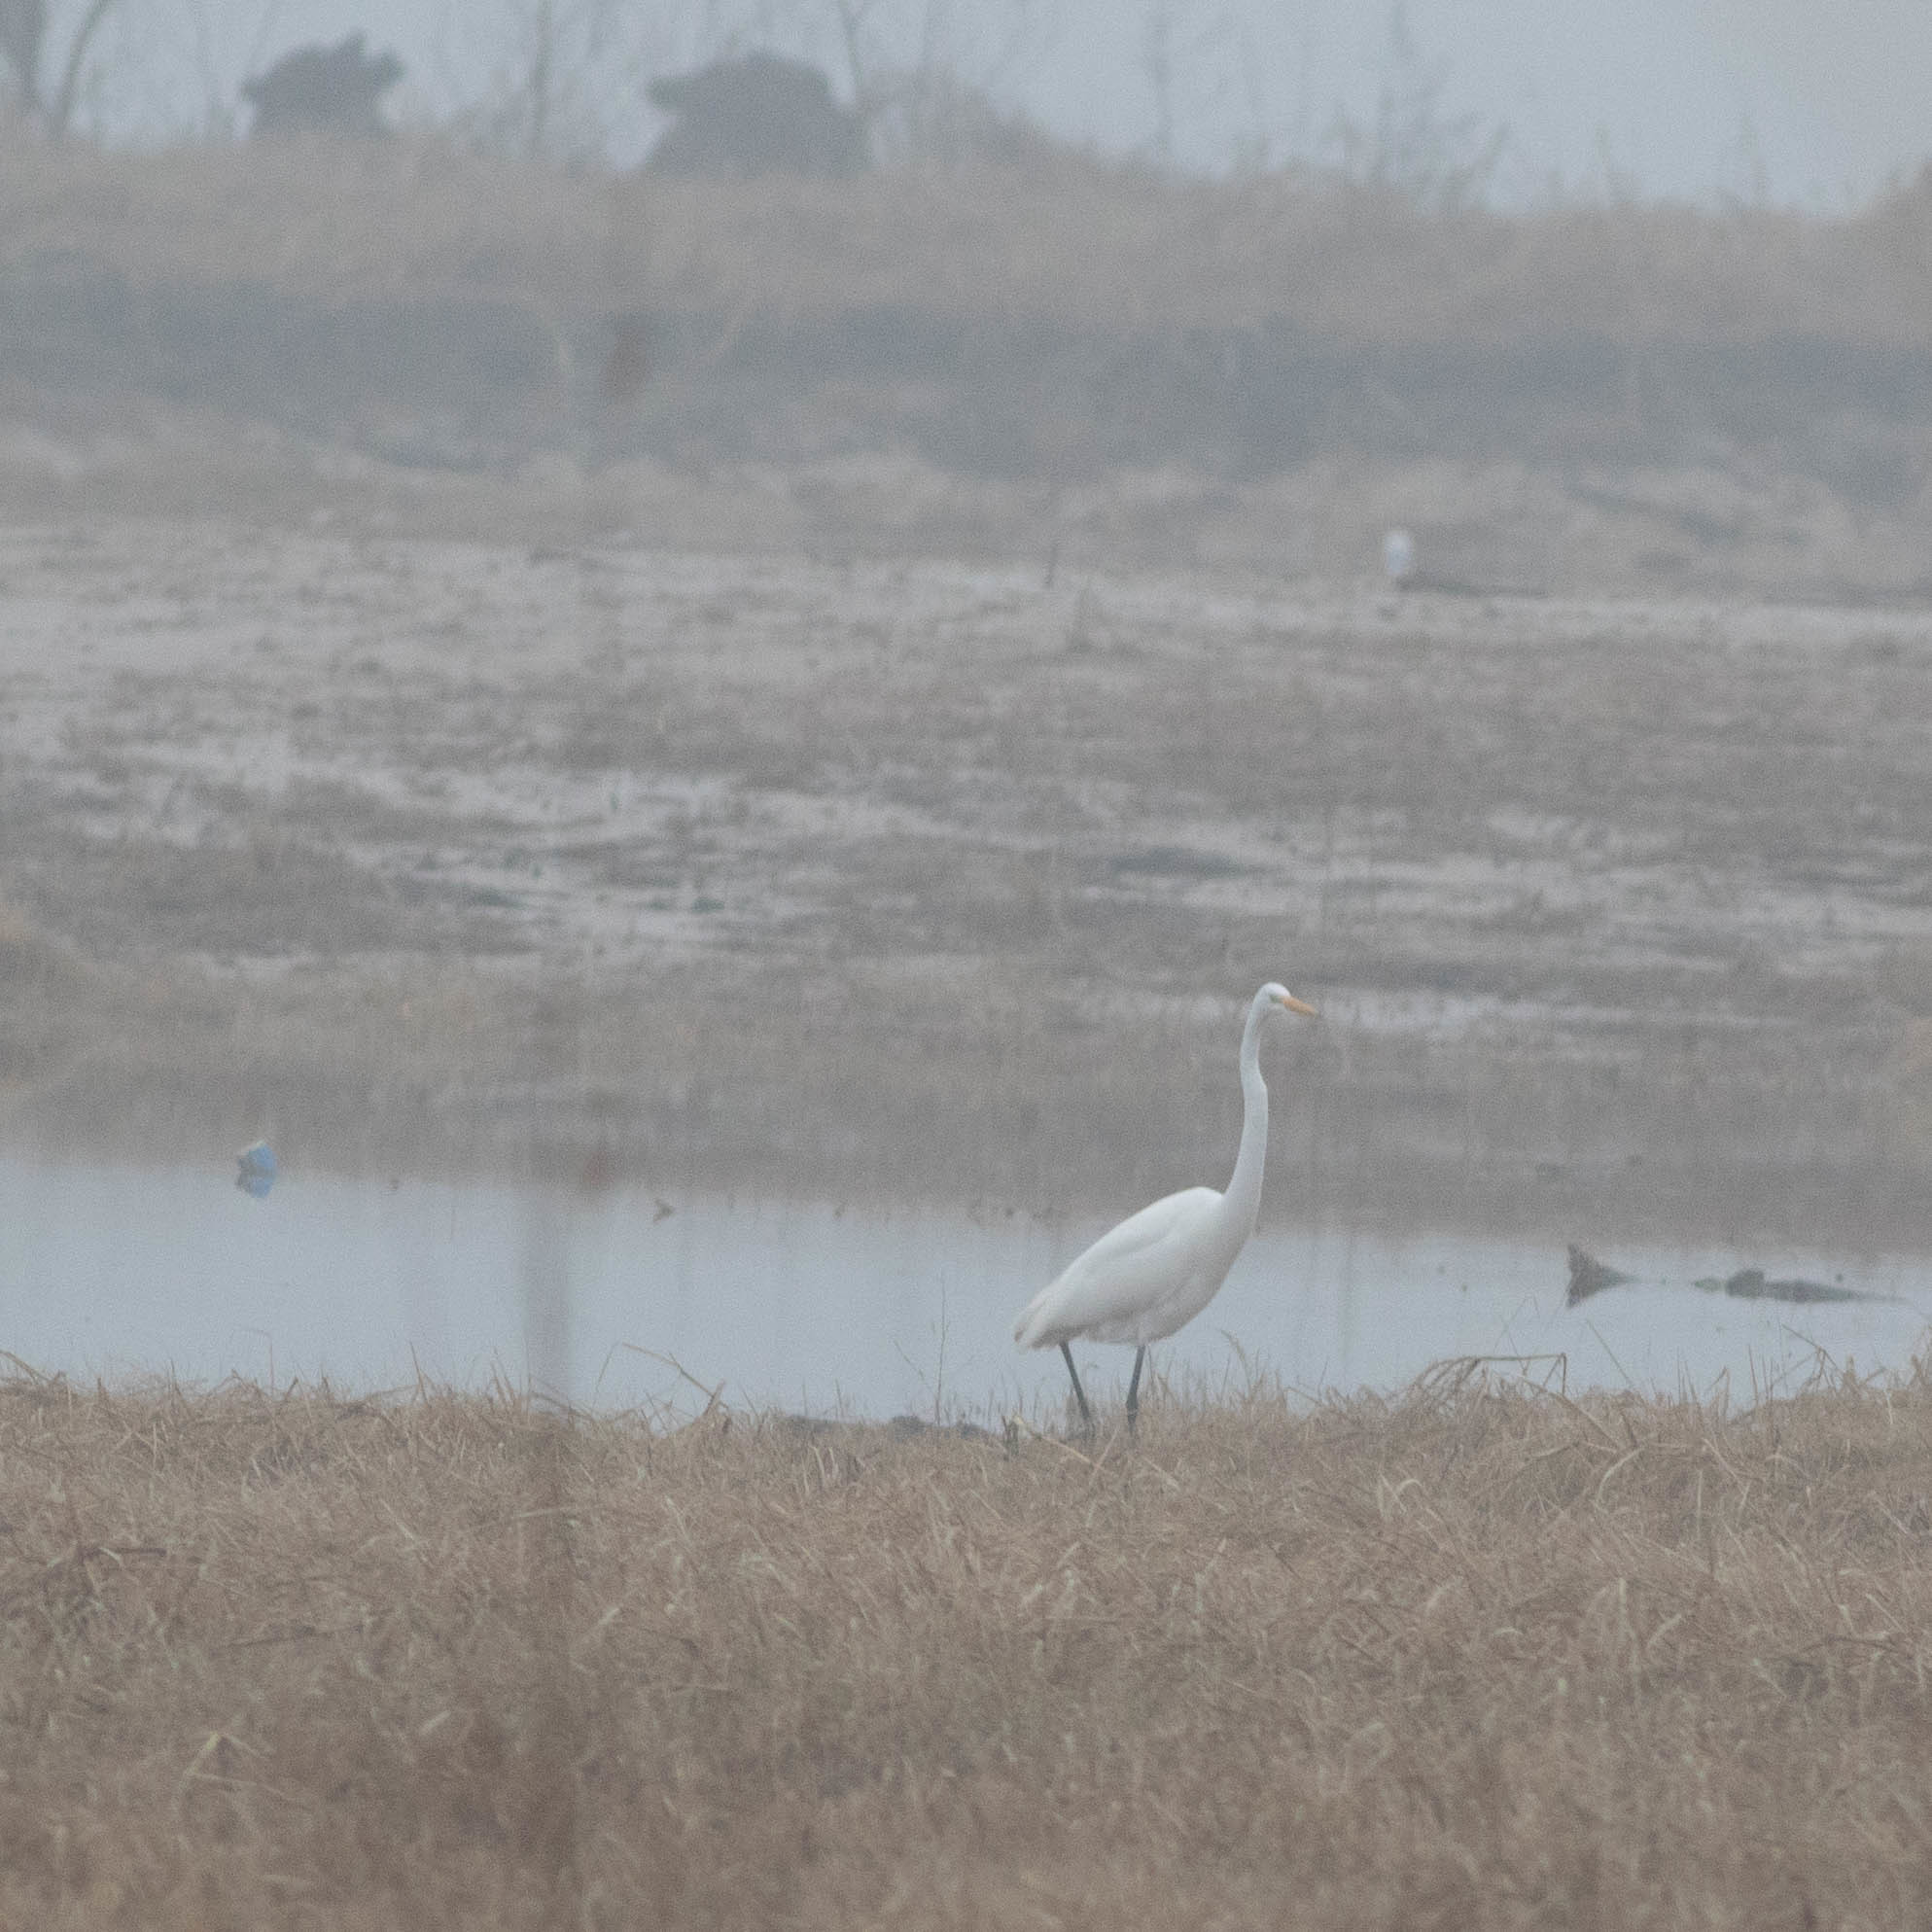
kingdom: Animalia
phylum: Chordata
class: Aves
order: Pelecaniformes
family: Ardeidae
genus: Ardea
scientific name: Ardea alba
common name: Great egret
